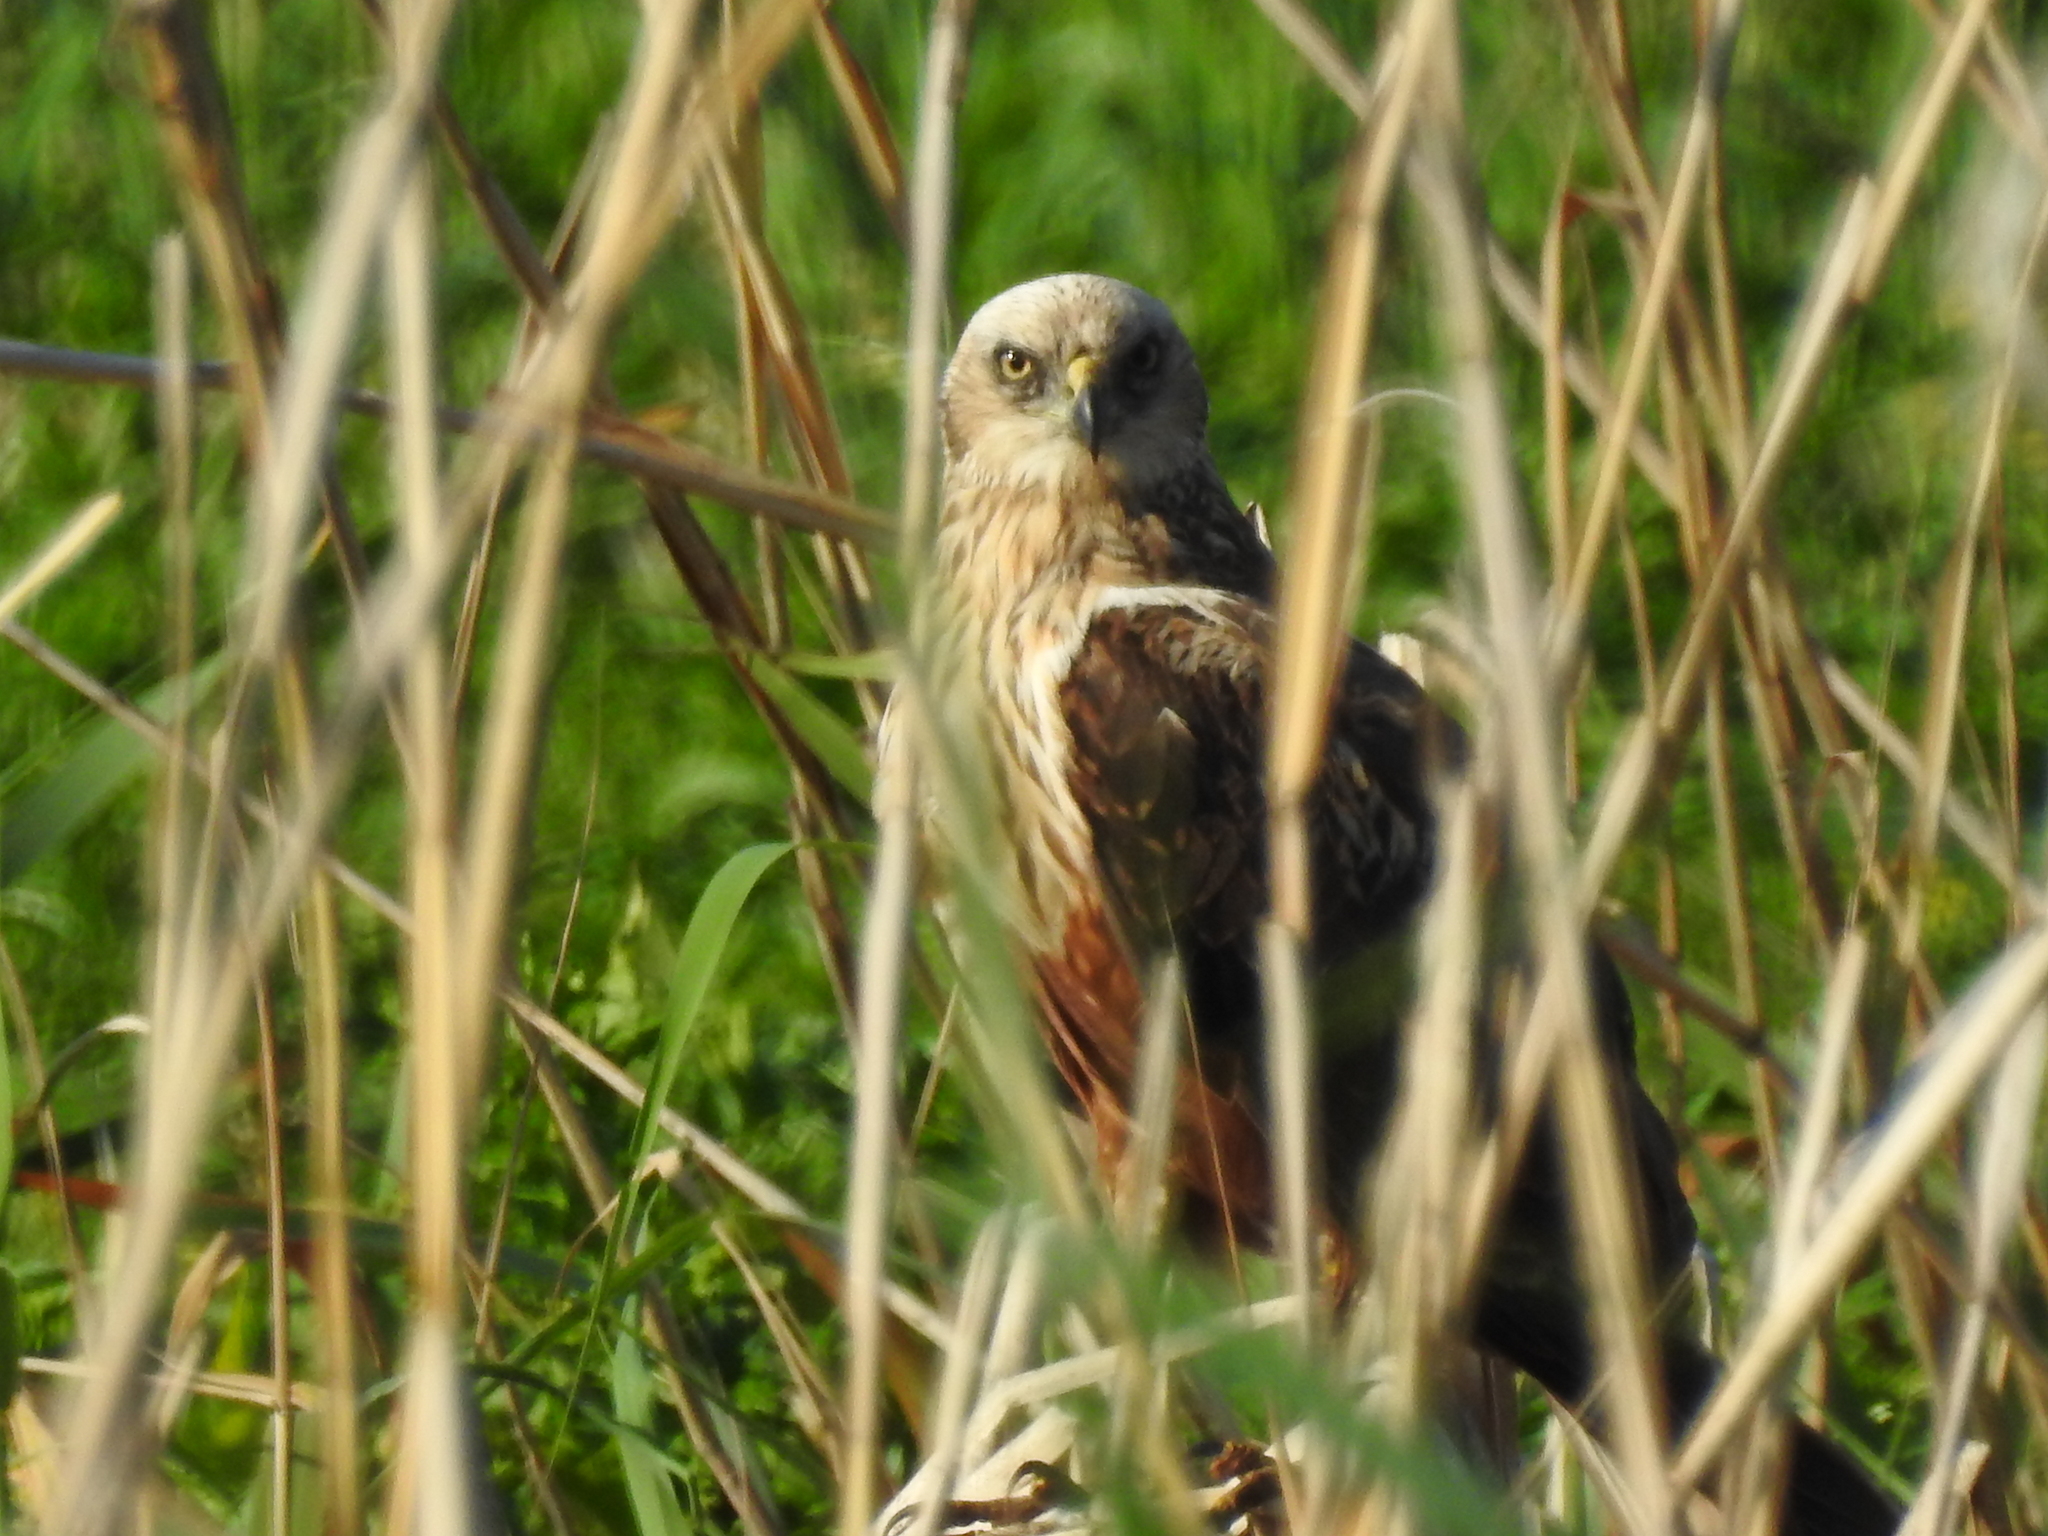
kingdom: Animalia
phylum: Chordata
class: Aves
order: Accipitriformes
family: Accipitridae
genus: Circus
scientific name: Circus aeruginosus
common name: Western marsh harrier
